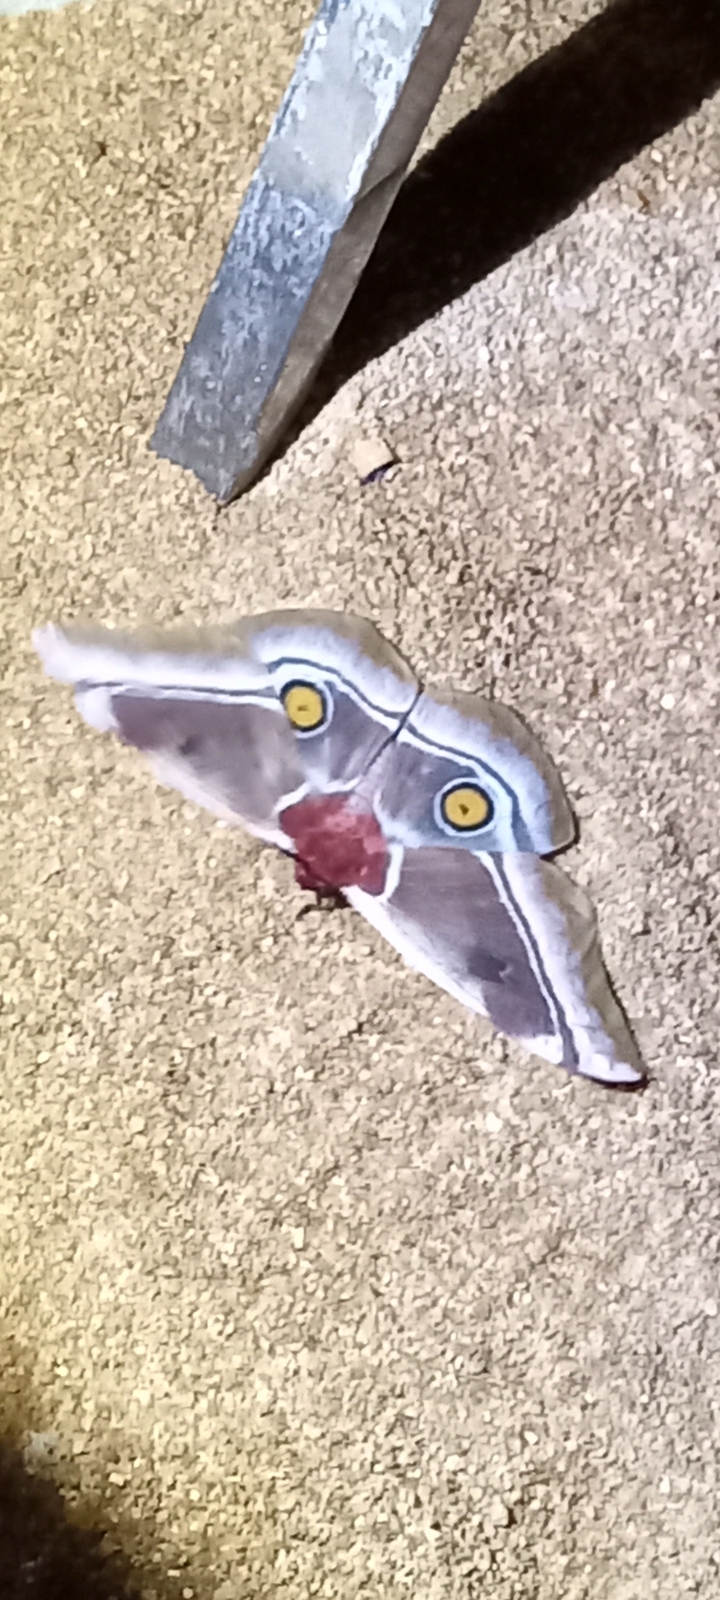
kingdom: Animalia
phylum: Arthropoda
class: Insecta
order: Lepidoptera
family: Saturniidae
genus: Bunaea
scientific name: Bunaea aslauga
